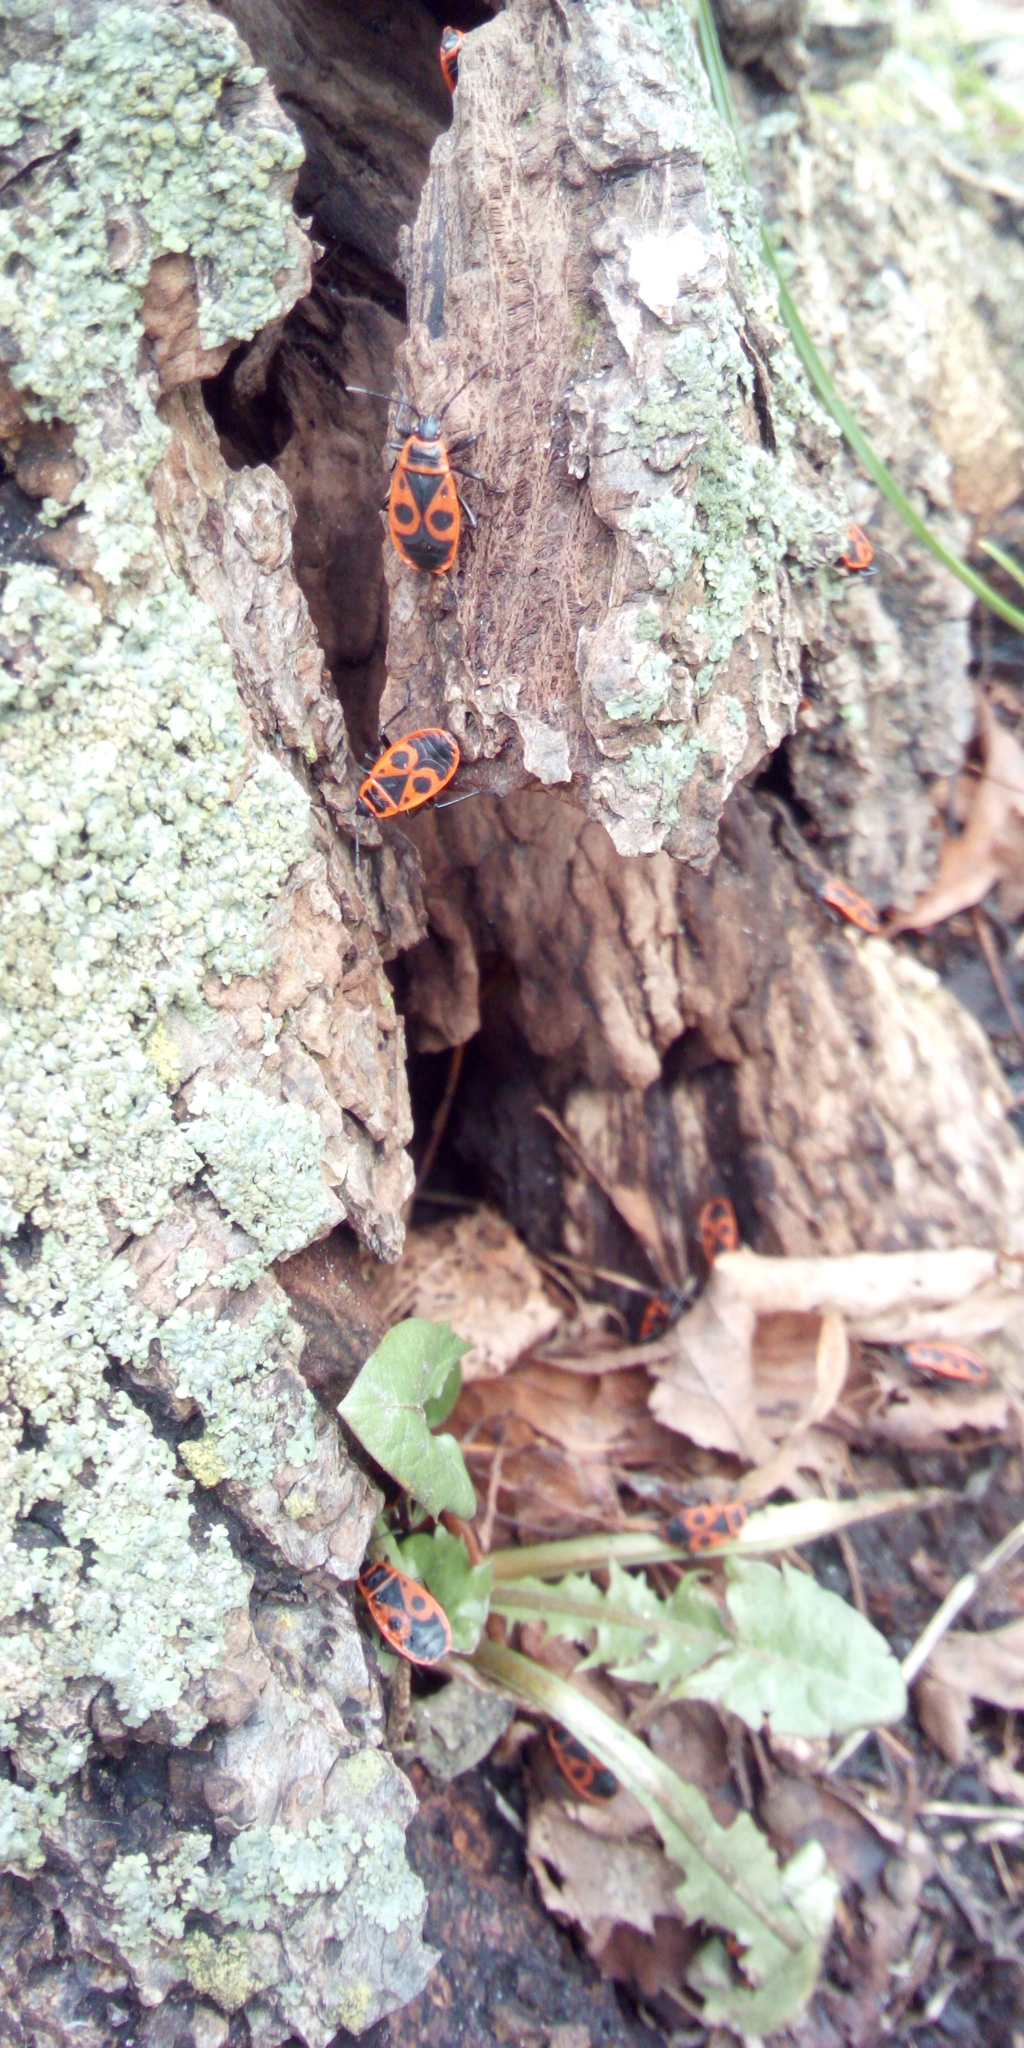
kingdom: Animalia
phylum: Arthropoda
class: Insecta
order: Hemiptera
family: Pyrrhocoridae
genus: Pyrrhocoris
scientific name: Pyrrhocoris apterus
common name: Firebug
